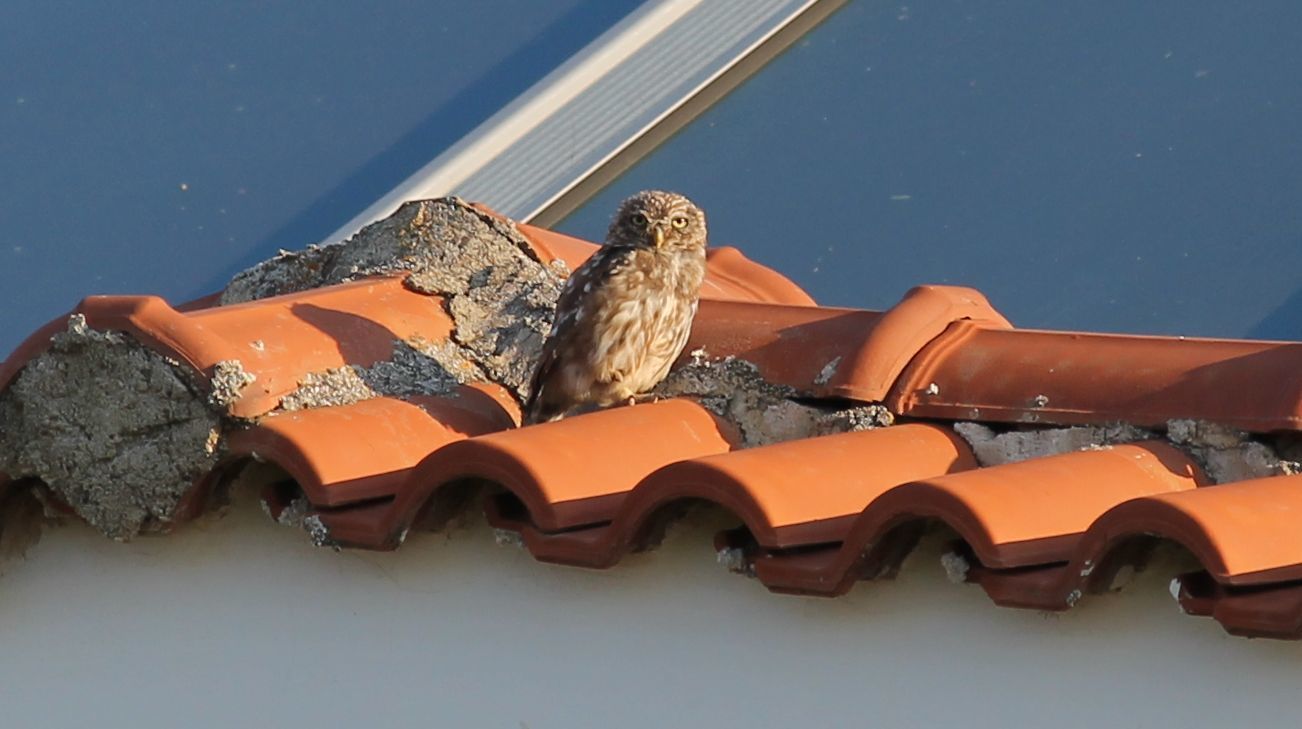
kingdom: Animalia
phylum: Chordata
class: Aves
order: Strigiformes
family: Strigidae
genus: Athene
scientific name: Athene noctua
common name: Little owl
